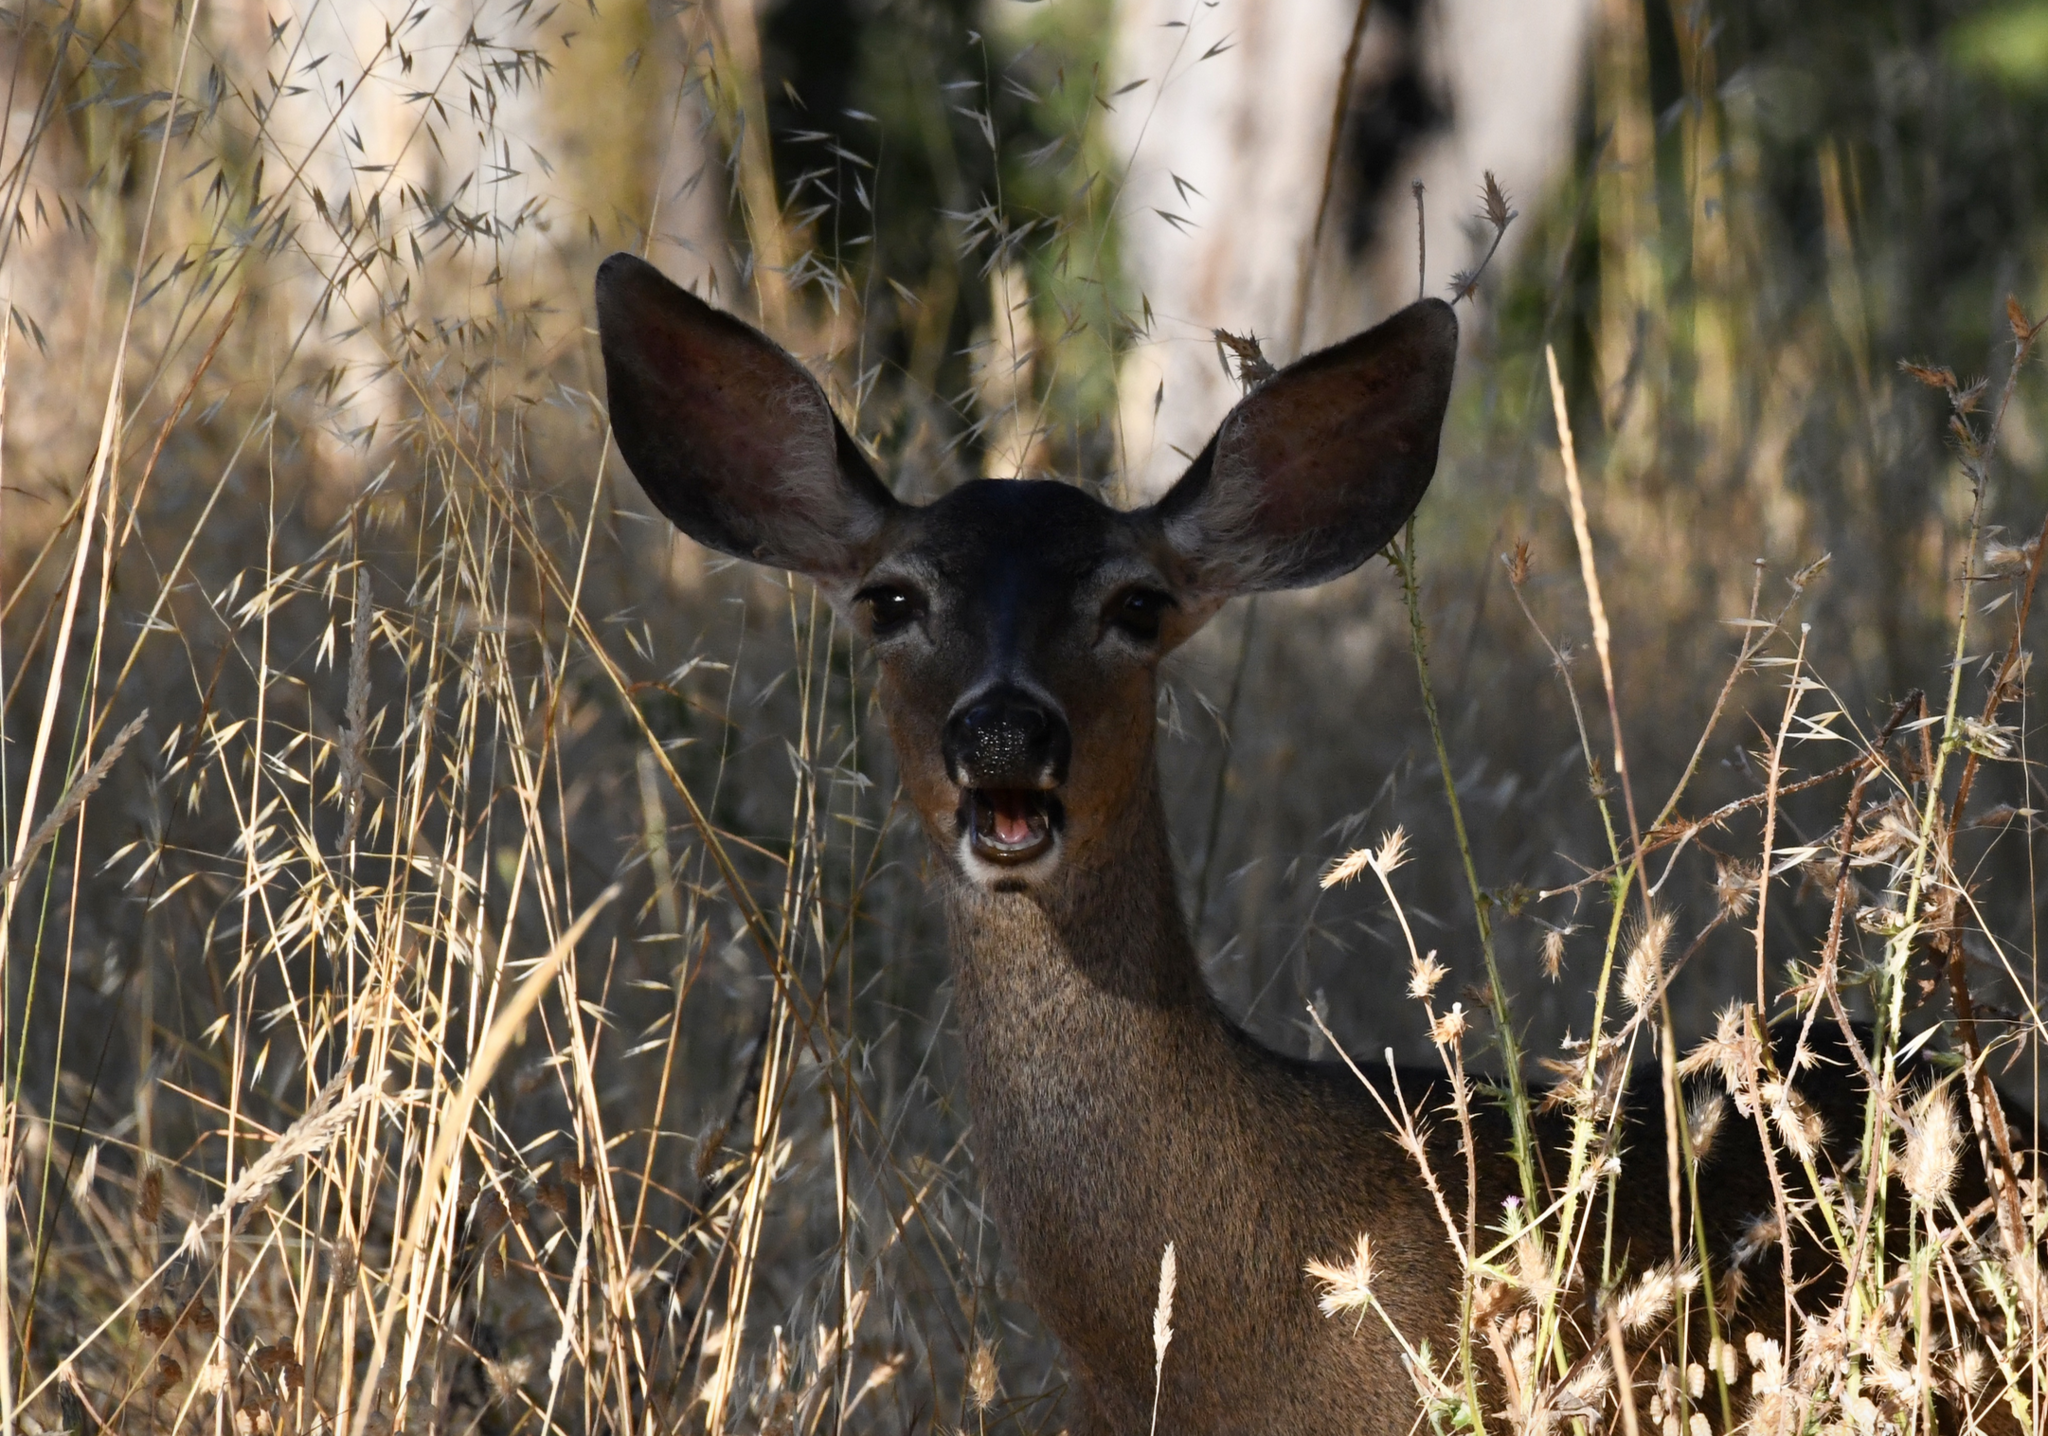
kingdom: Animalia
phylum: Chordata
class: Mammalia
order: Artiodactyla
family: Cervidae
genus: Odocoileus
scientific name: Odocoileus hemionus
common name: Mule deer
